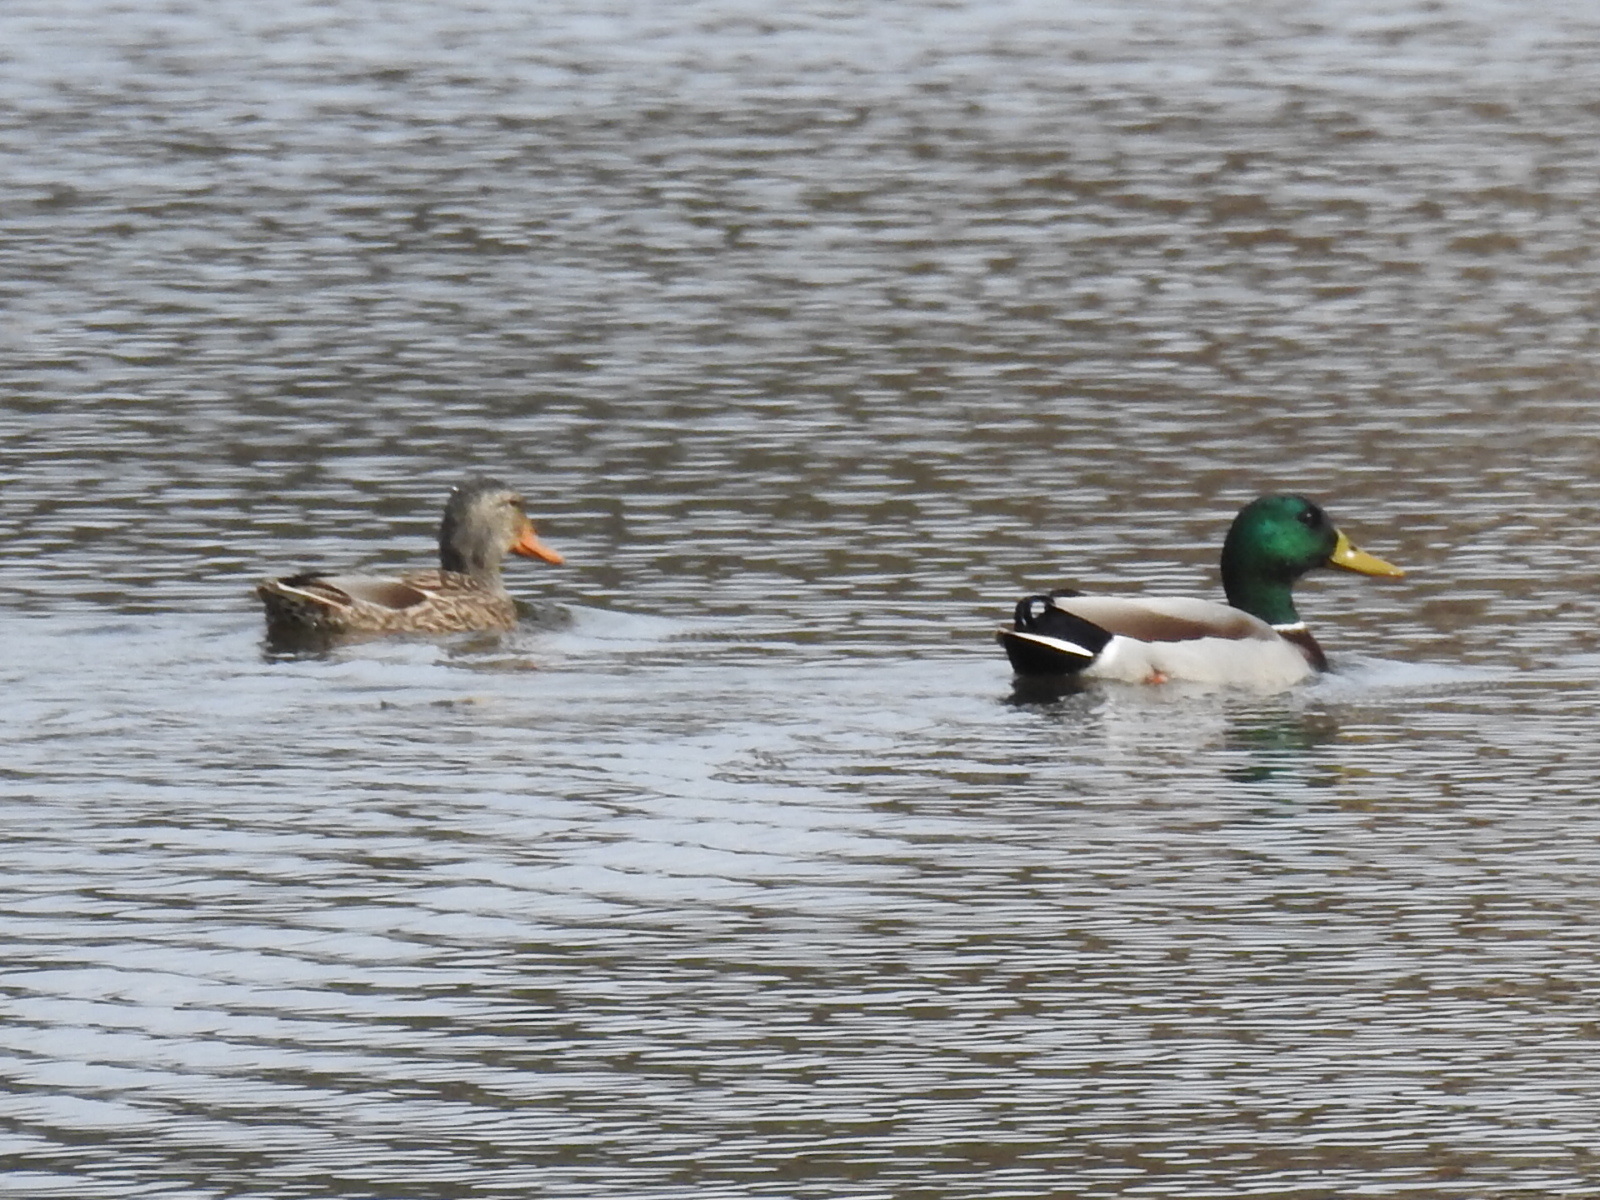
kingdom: Animalia
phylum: Chordata
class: Aves
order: Anseriformes
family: Anatidae
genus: Anas
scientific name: Anas platyrhynchos
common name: Mallard
